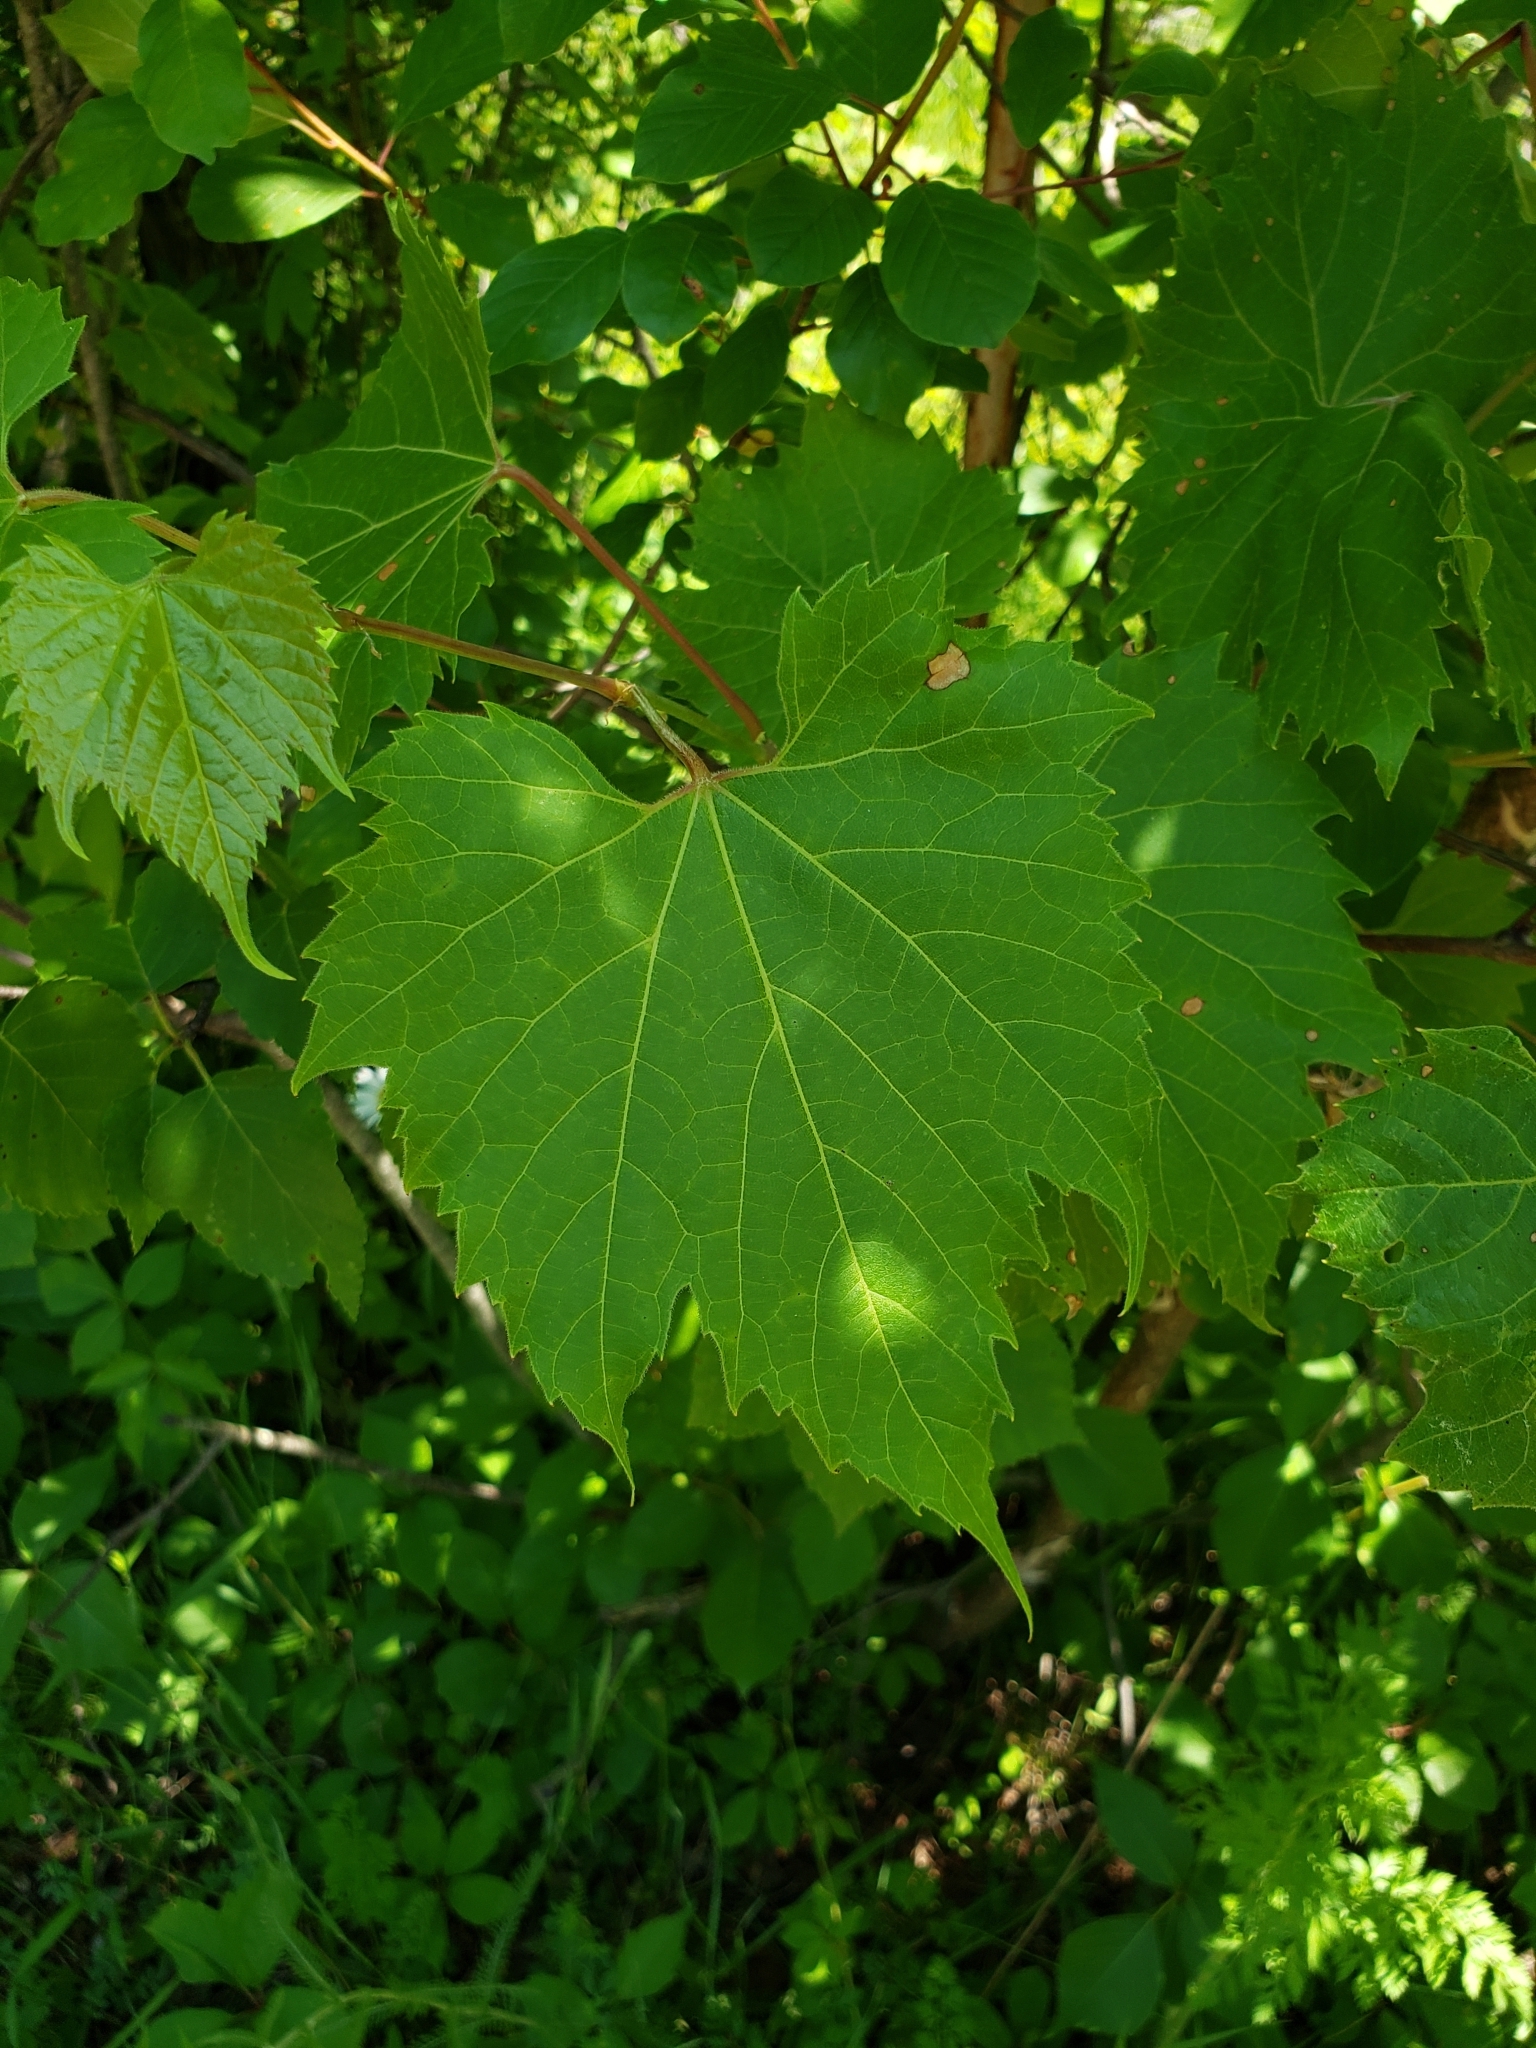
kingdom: Plantae
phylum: Tracheophyta
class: Magnoliopsida
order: Vitales
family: Vitaceae
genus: Vitis
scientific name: Vitis riparia
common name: Frost grape
